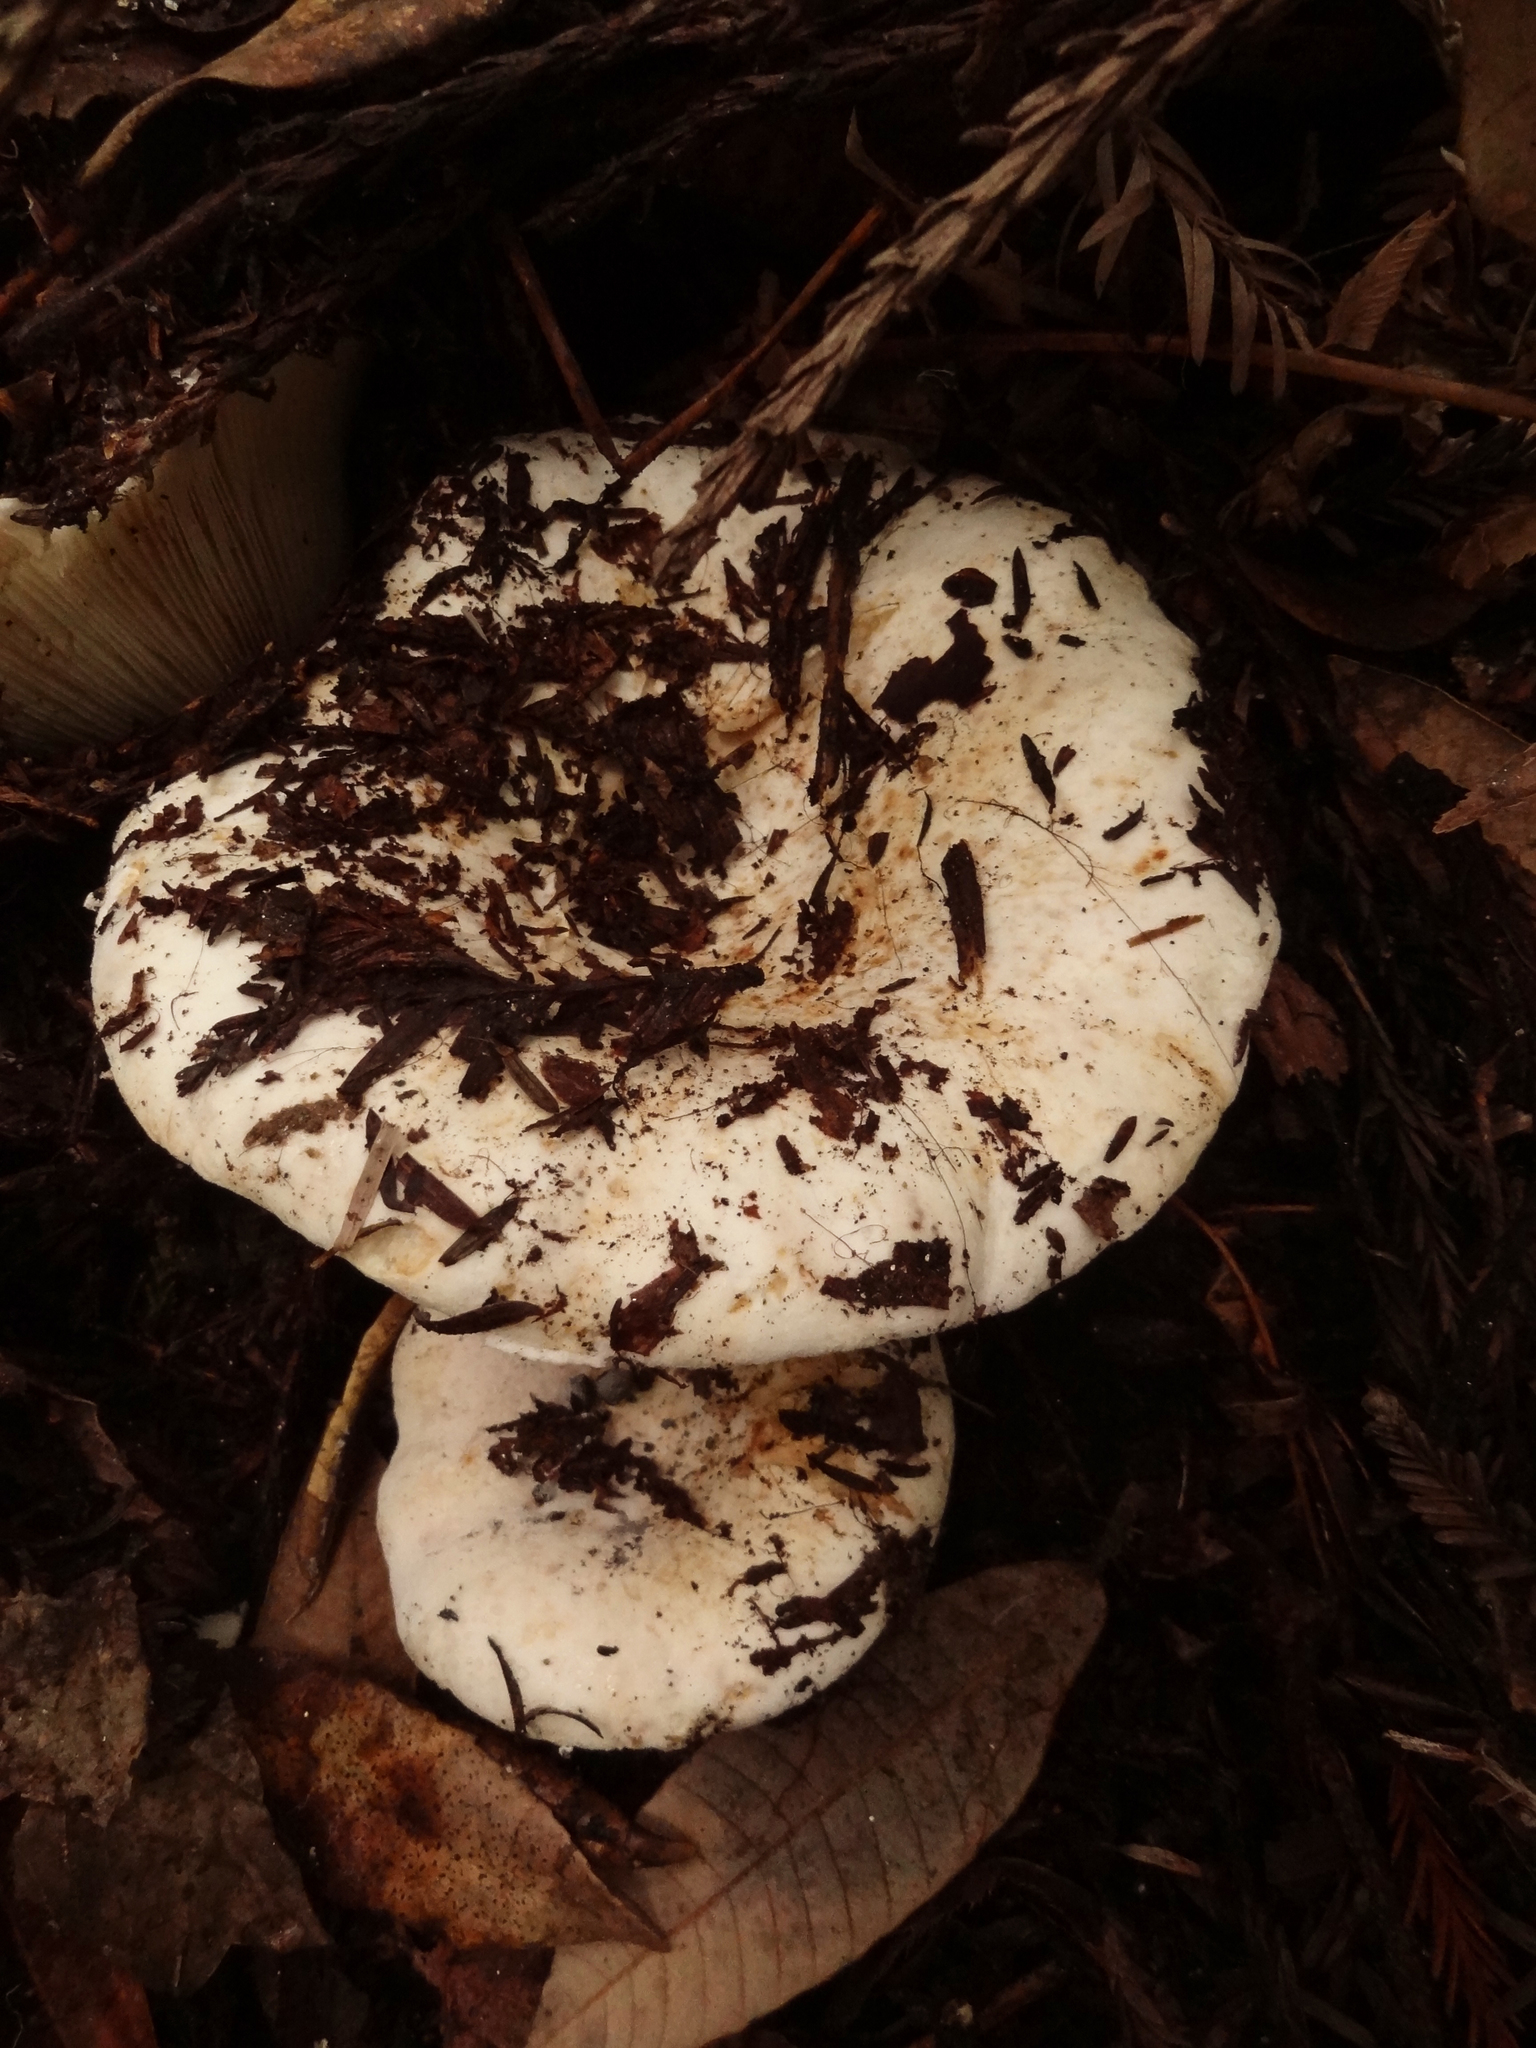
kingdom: Fungi
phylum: Basidiomycota
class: Agaricomycetes
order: Russulales
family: Russulaceae
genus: Russula
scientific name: Russula brevipes
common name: Short-stemmed russula
